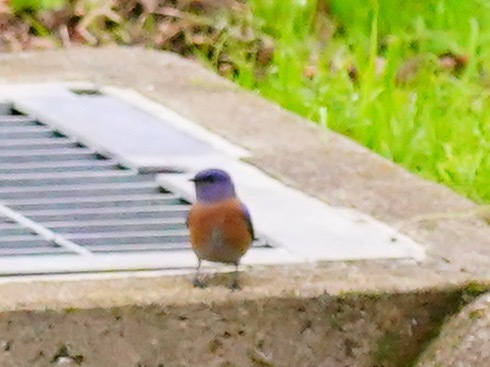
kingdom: Animalia
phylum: Chordata
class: Aves
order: Passeriformes
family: Turdidae
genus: Sialia
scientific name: Sialia mexicana
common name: Western bluebird
